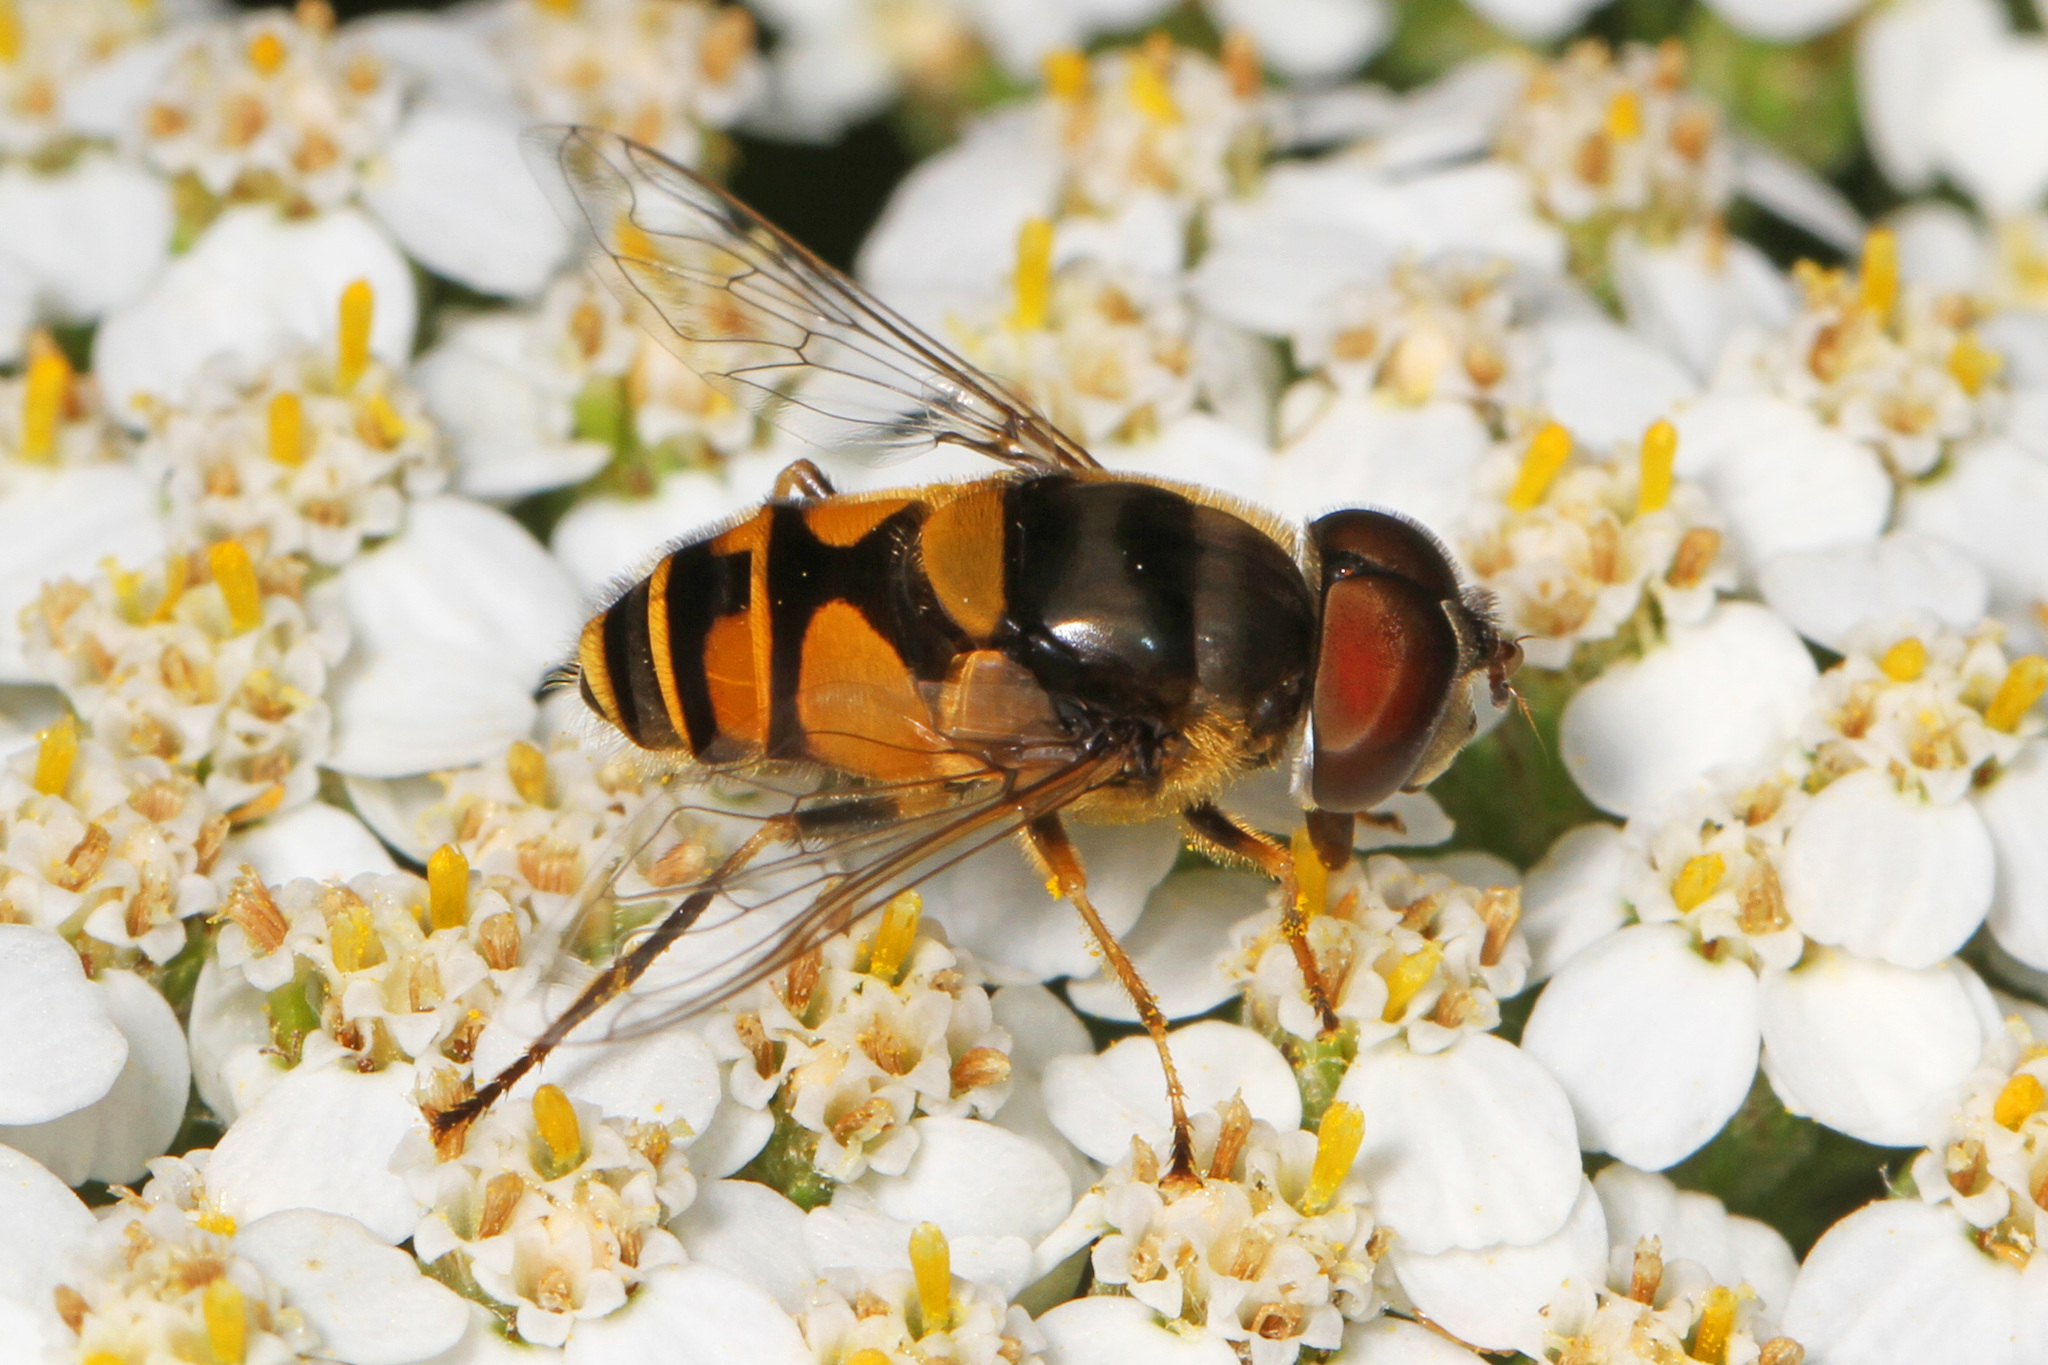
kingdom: Animalia
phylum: Arthropoda
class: Insecta
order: Diptera
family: Syrphidae
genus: Eristalis
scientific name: Eristalis transversa
